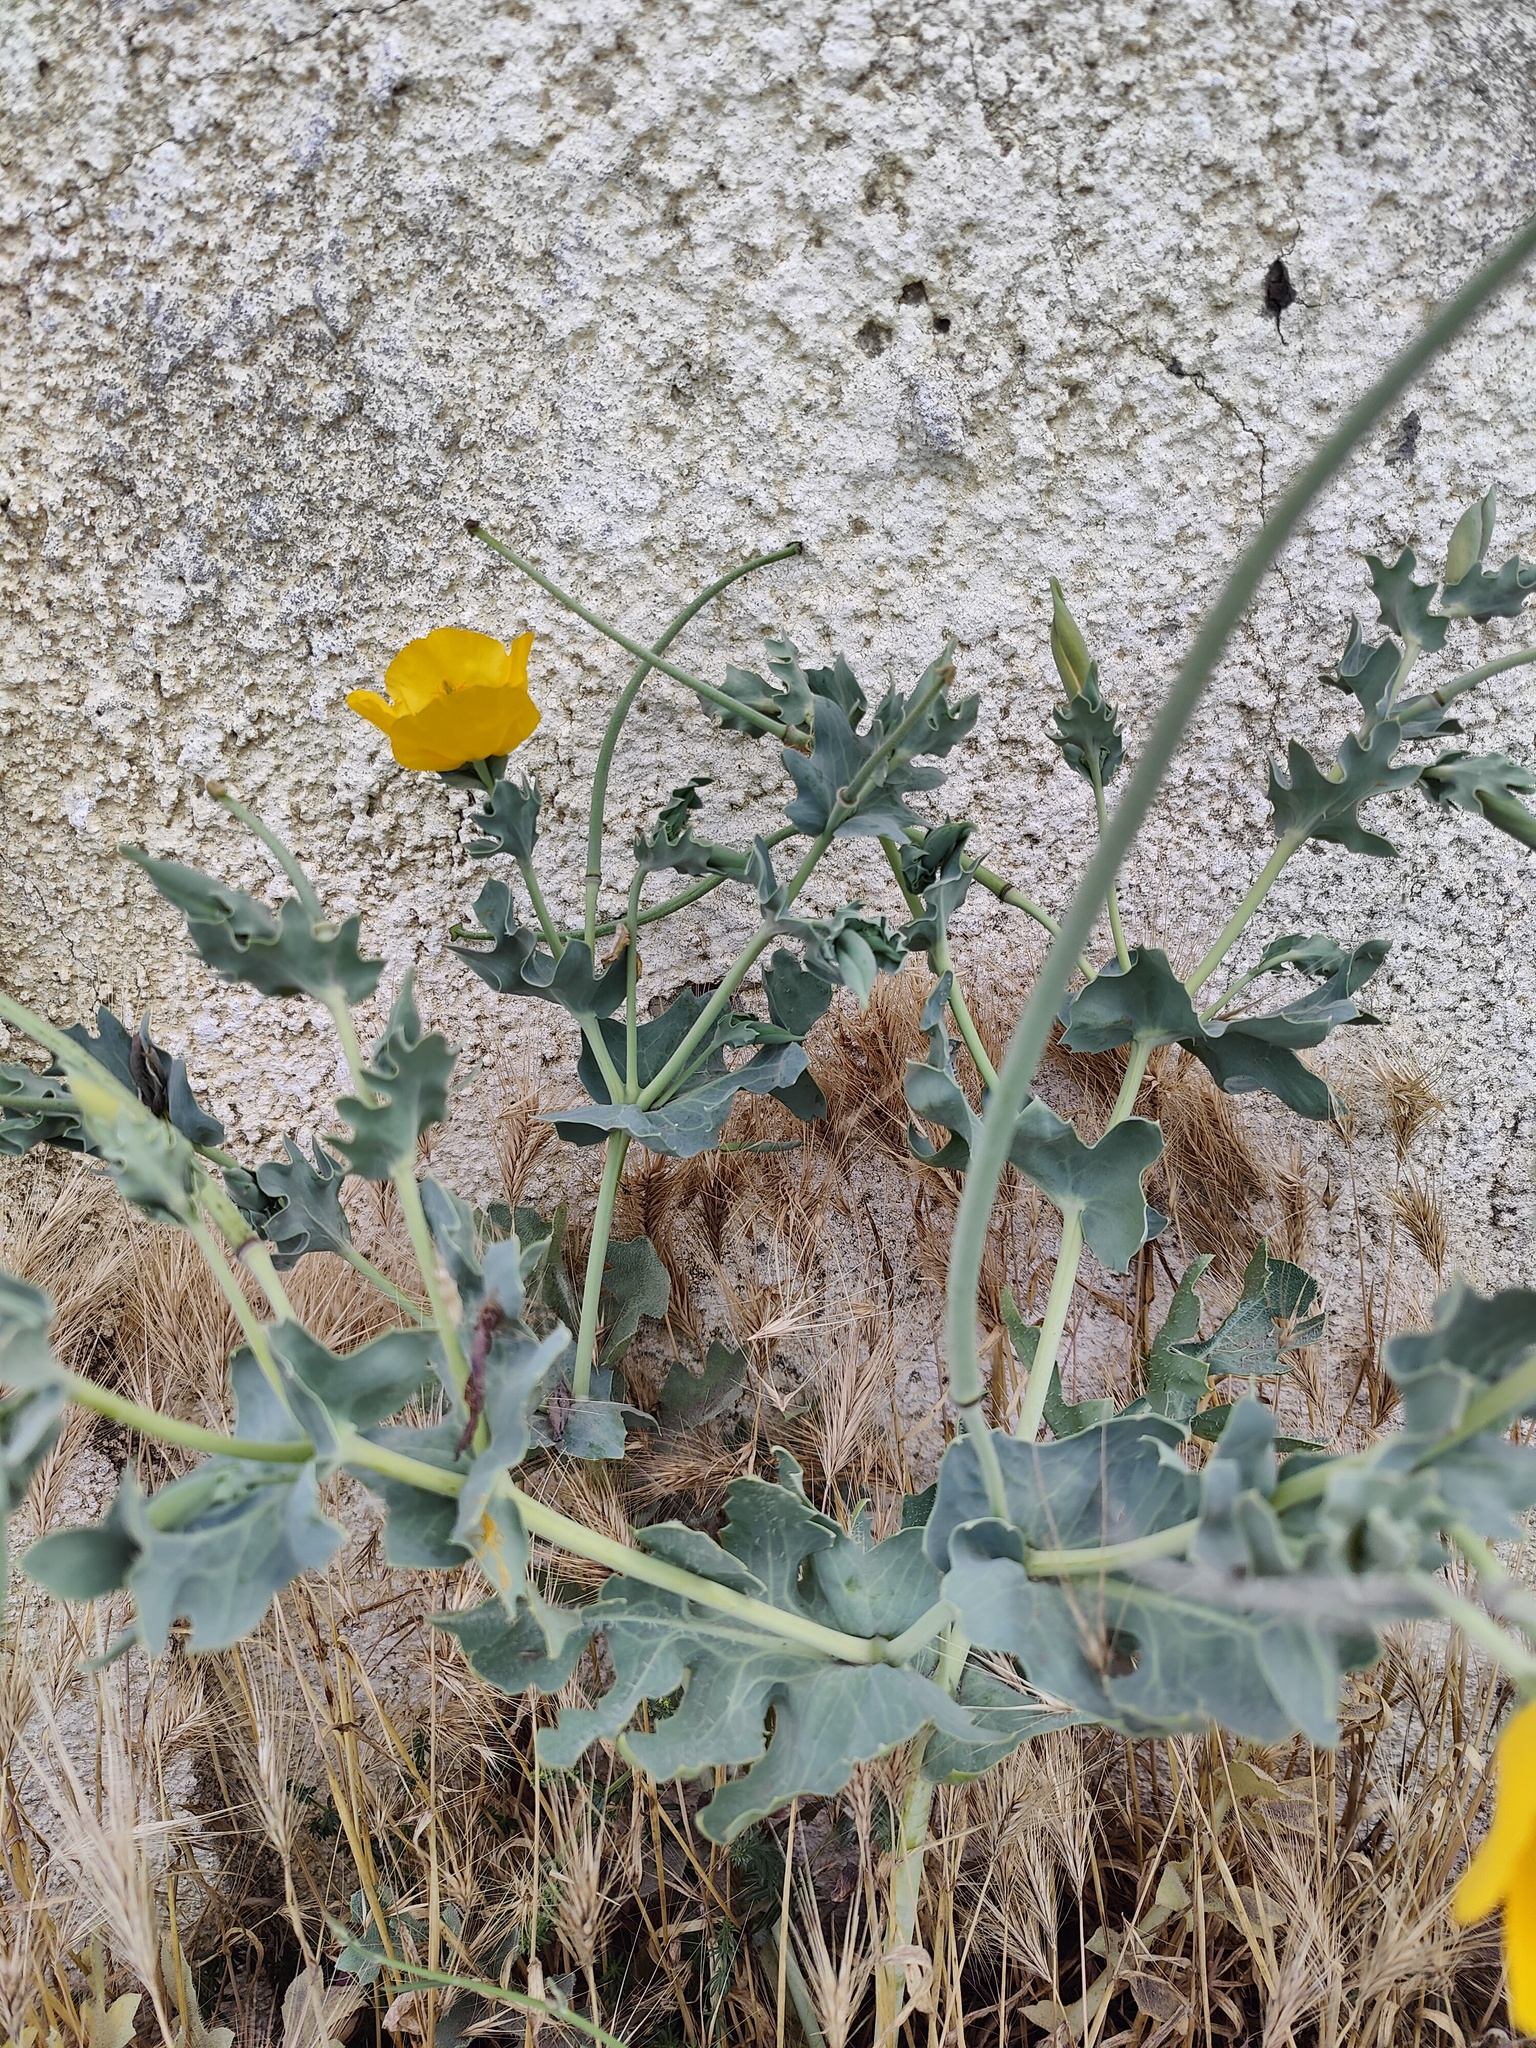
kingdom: Plantae
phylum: Tracheophyta
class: Magnoliopsida
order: Ranunculales
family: Papaveraceae
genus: Glaucium
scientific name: Glaucium flavum
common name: Yellow horned-poppy
